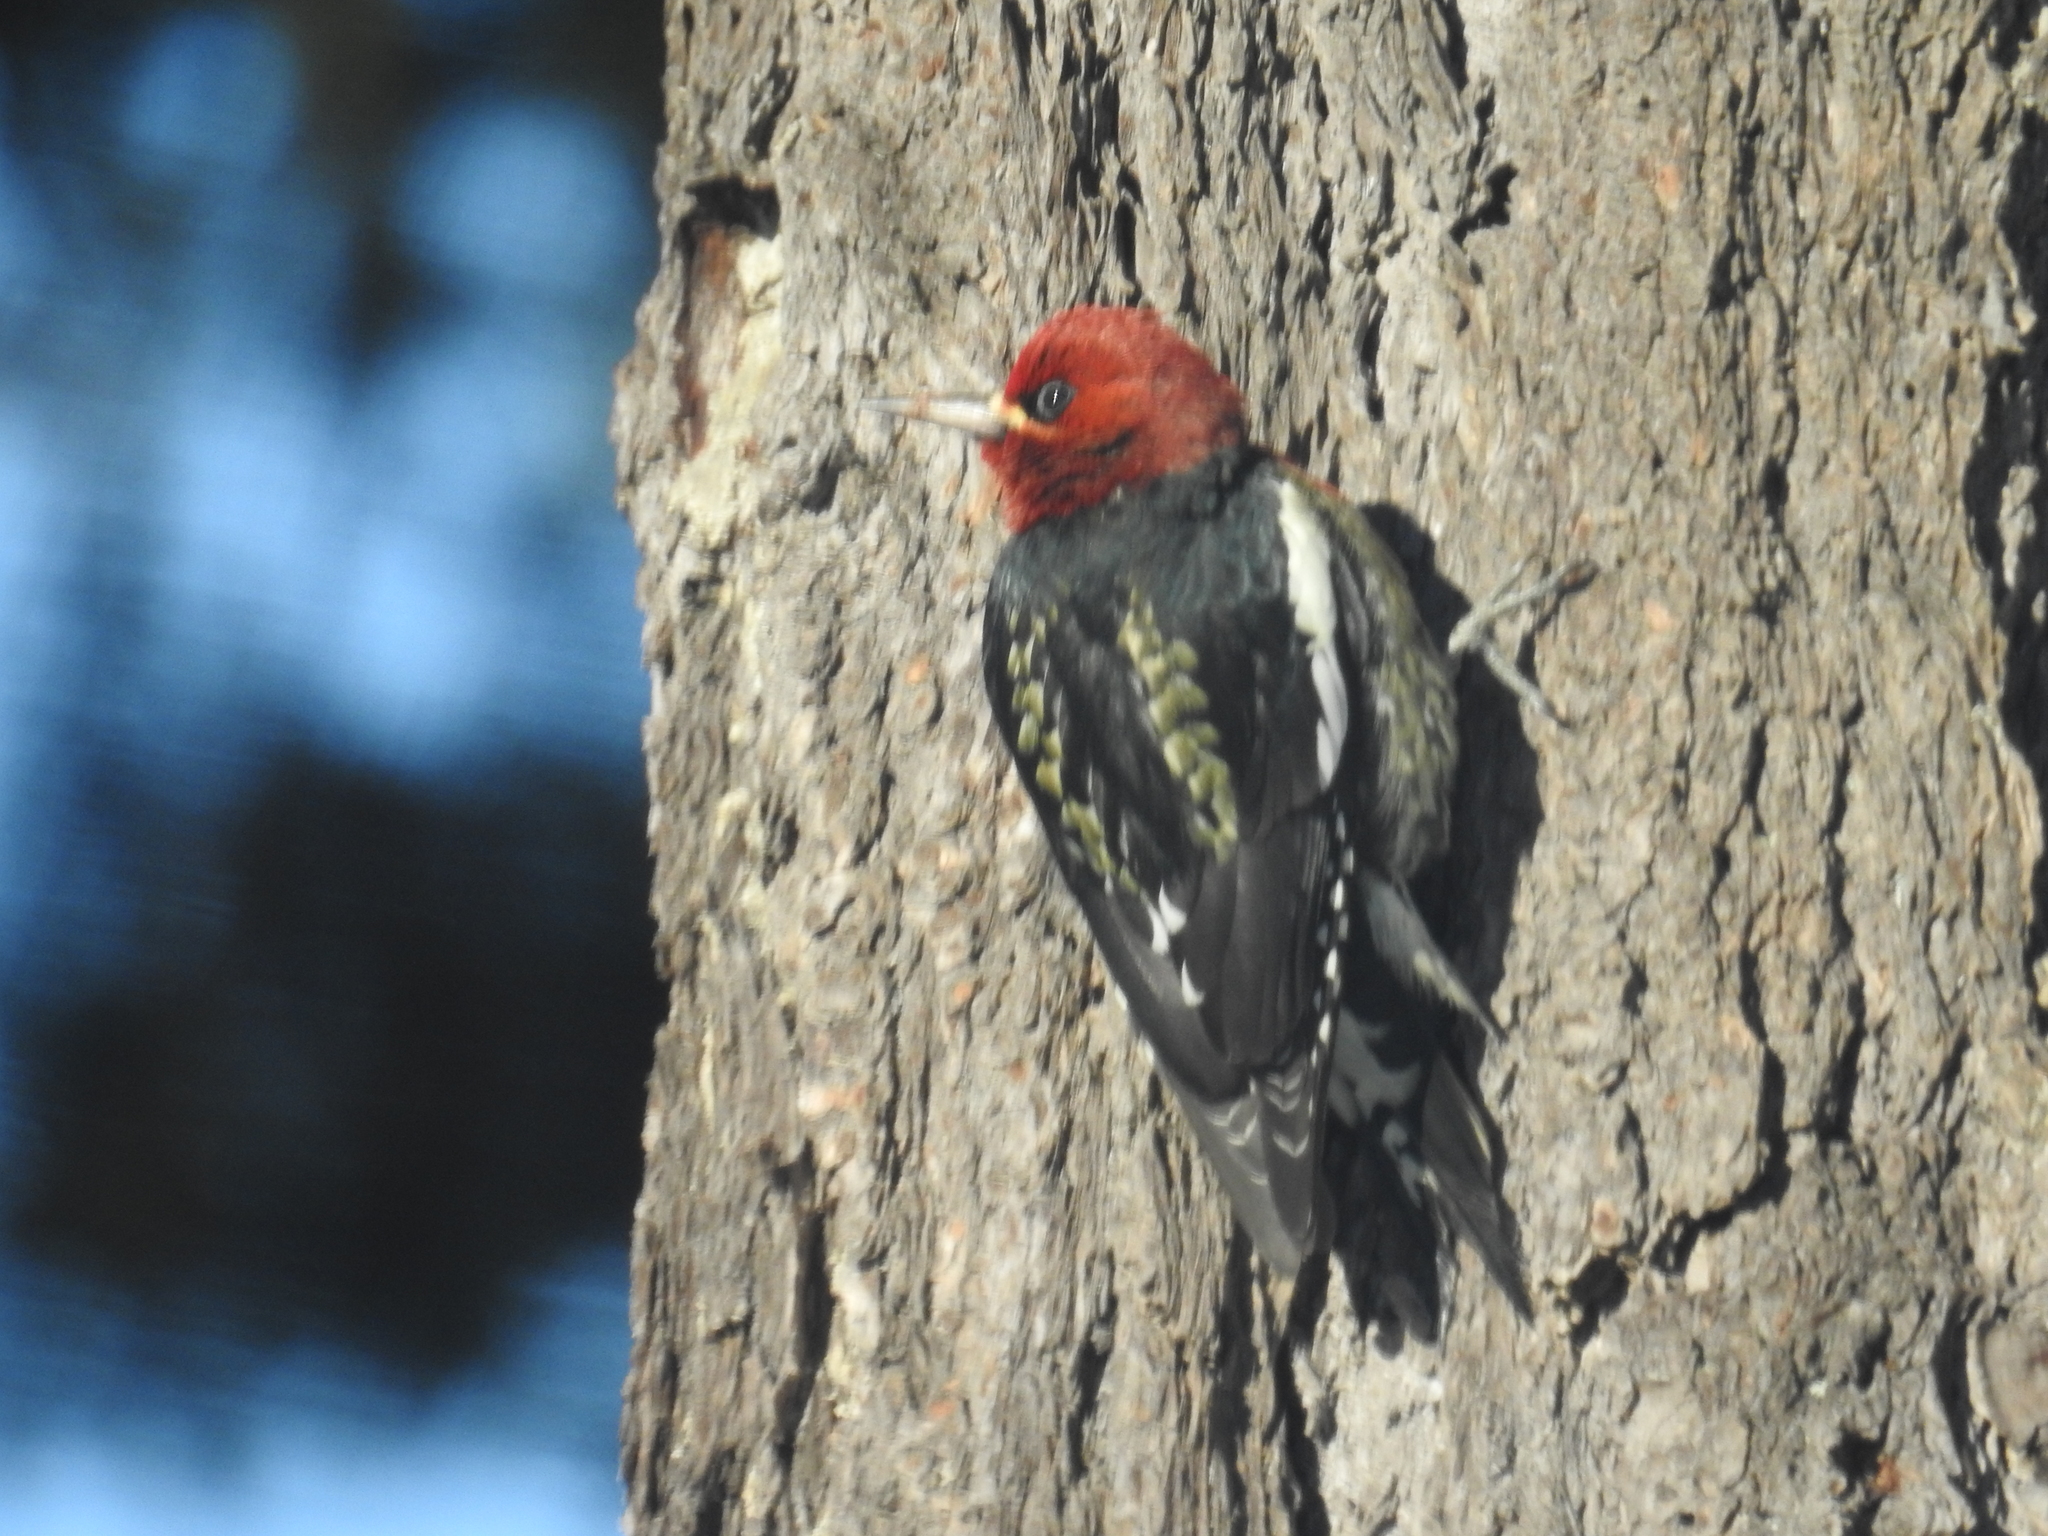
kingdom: Animalia
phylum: Chordata
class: Aves
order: Piciformes
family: Picidae
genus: Sphyrapicus
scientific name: Sphyrapicus ruber
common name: Red-breasted sapsucker
